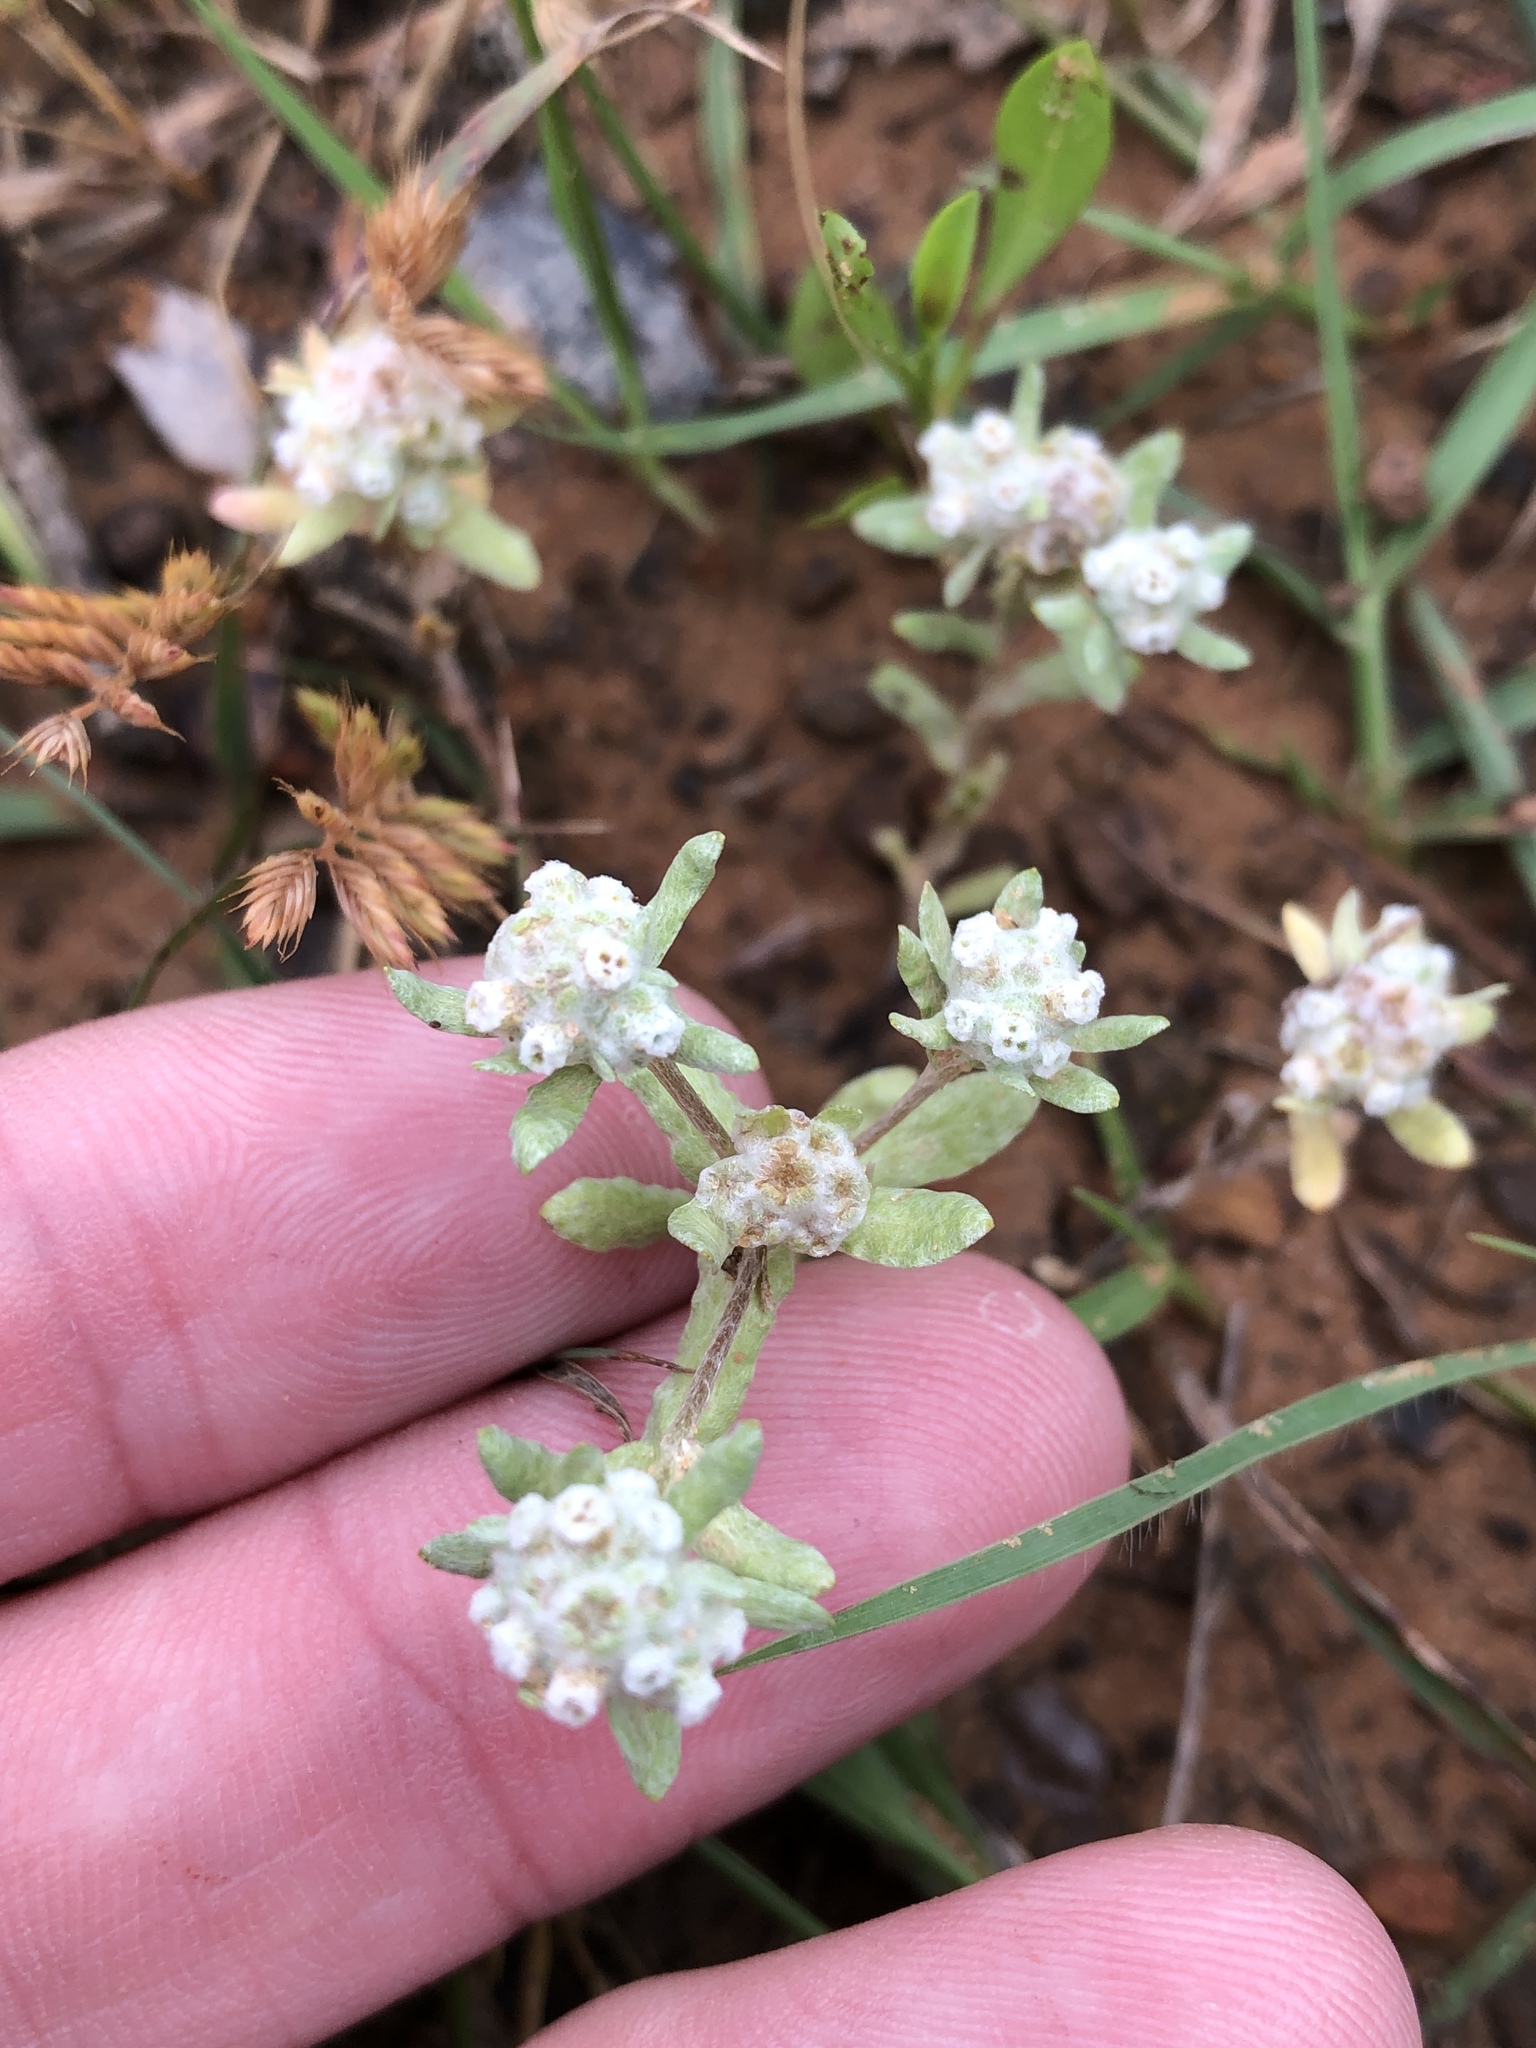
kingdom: Plantae
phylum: Tracheophyta
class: Magnoliopsida
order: Asterales
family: Asteraceae
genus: Diaperia
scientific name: Diaperia verna
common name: Many-stem rabbit-tobacco
